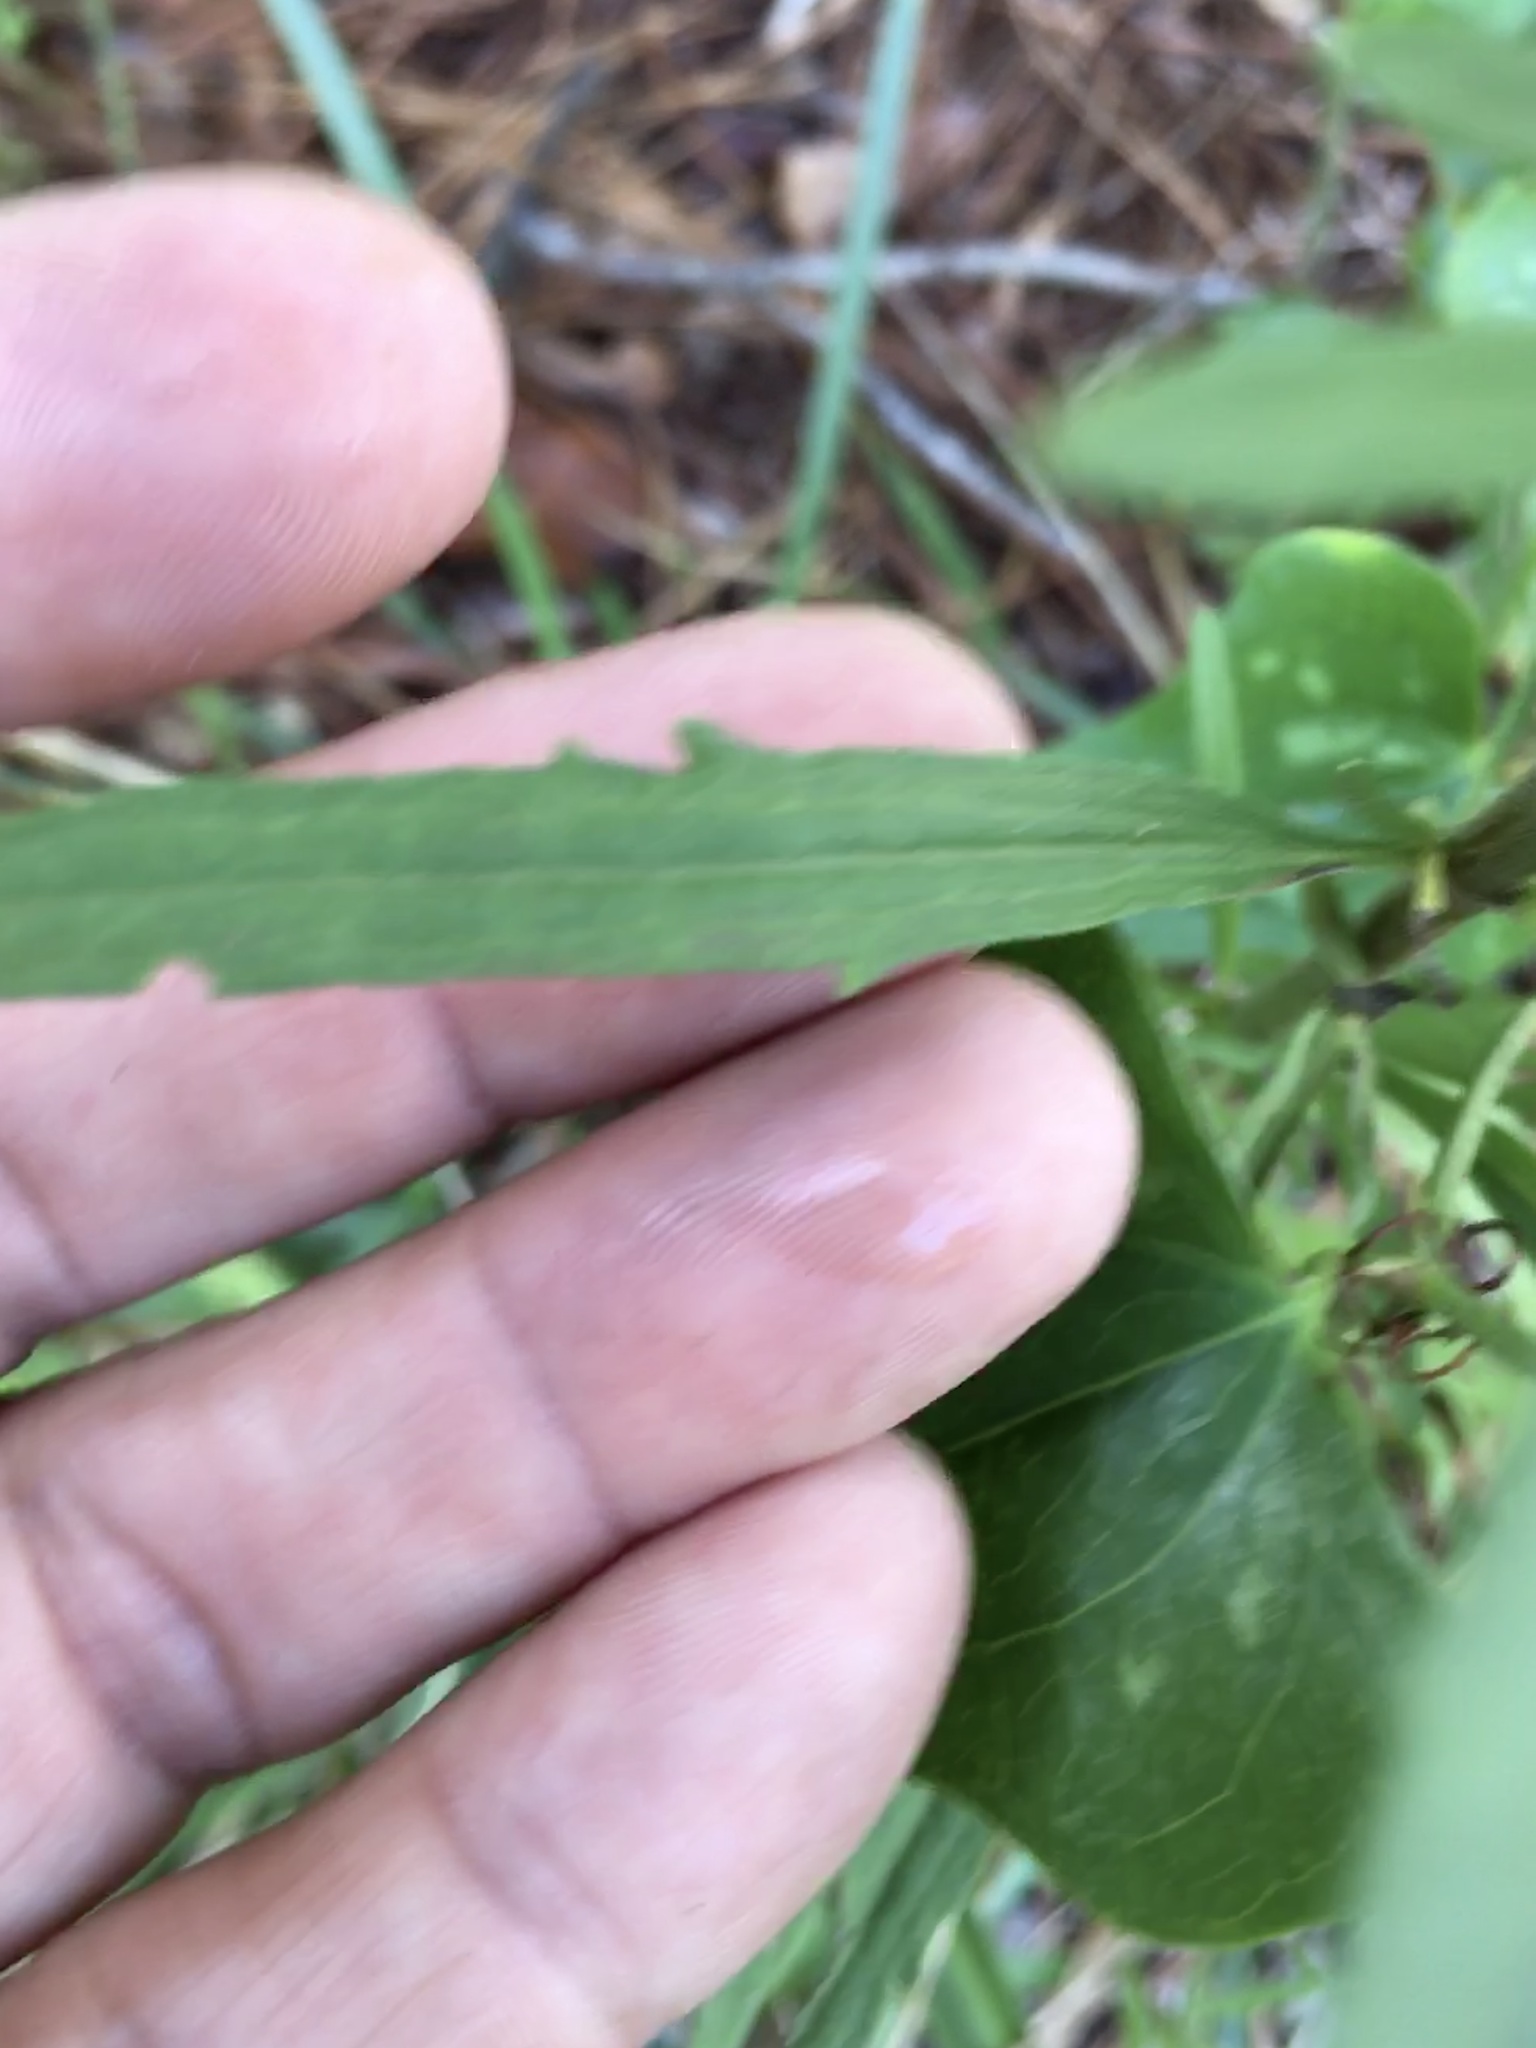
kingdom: Plantae
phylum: Tracheophyta
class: Magnoliopsida
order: Asterales
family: Asteraceae
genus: Eupatorium
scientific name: Eupatorium torreyanum
